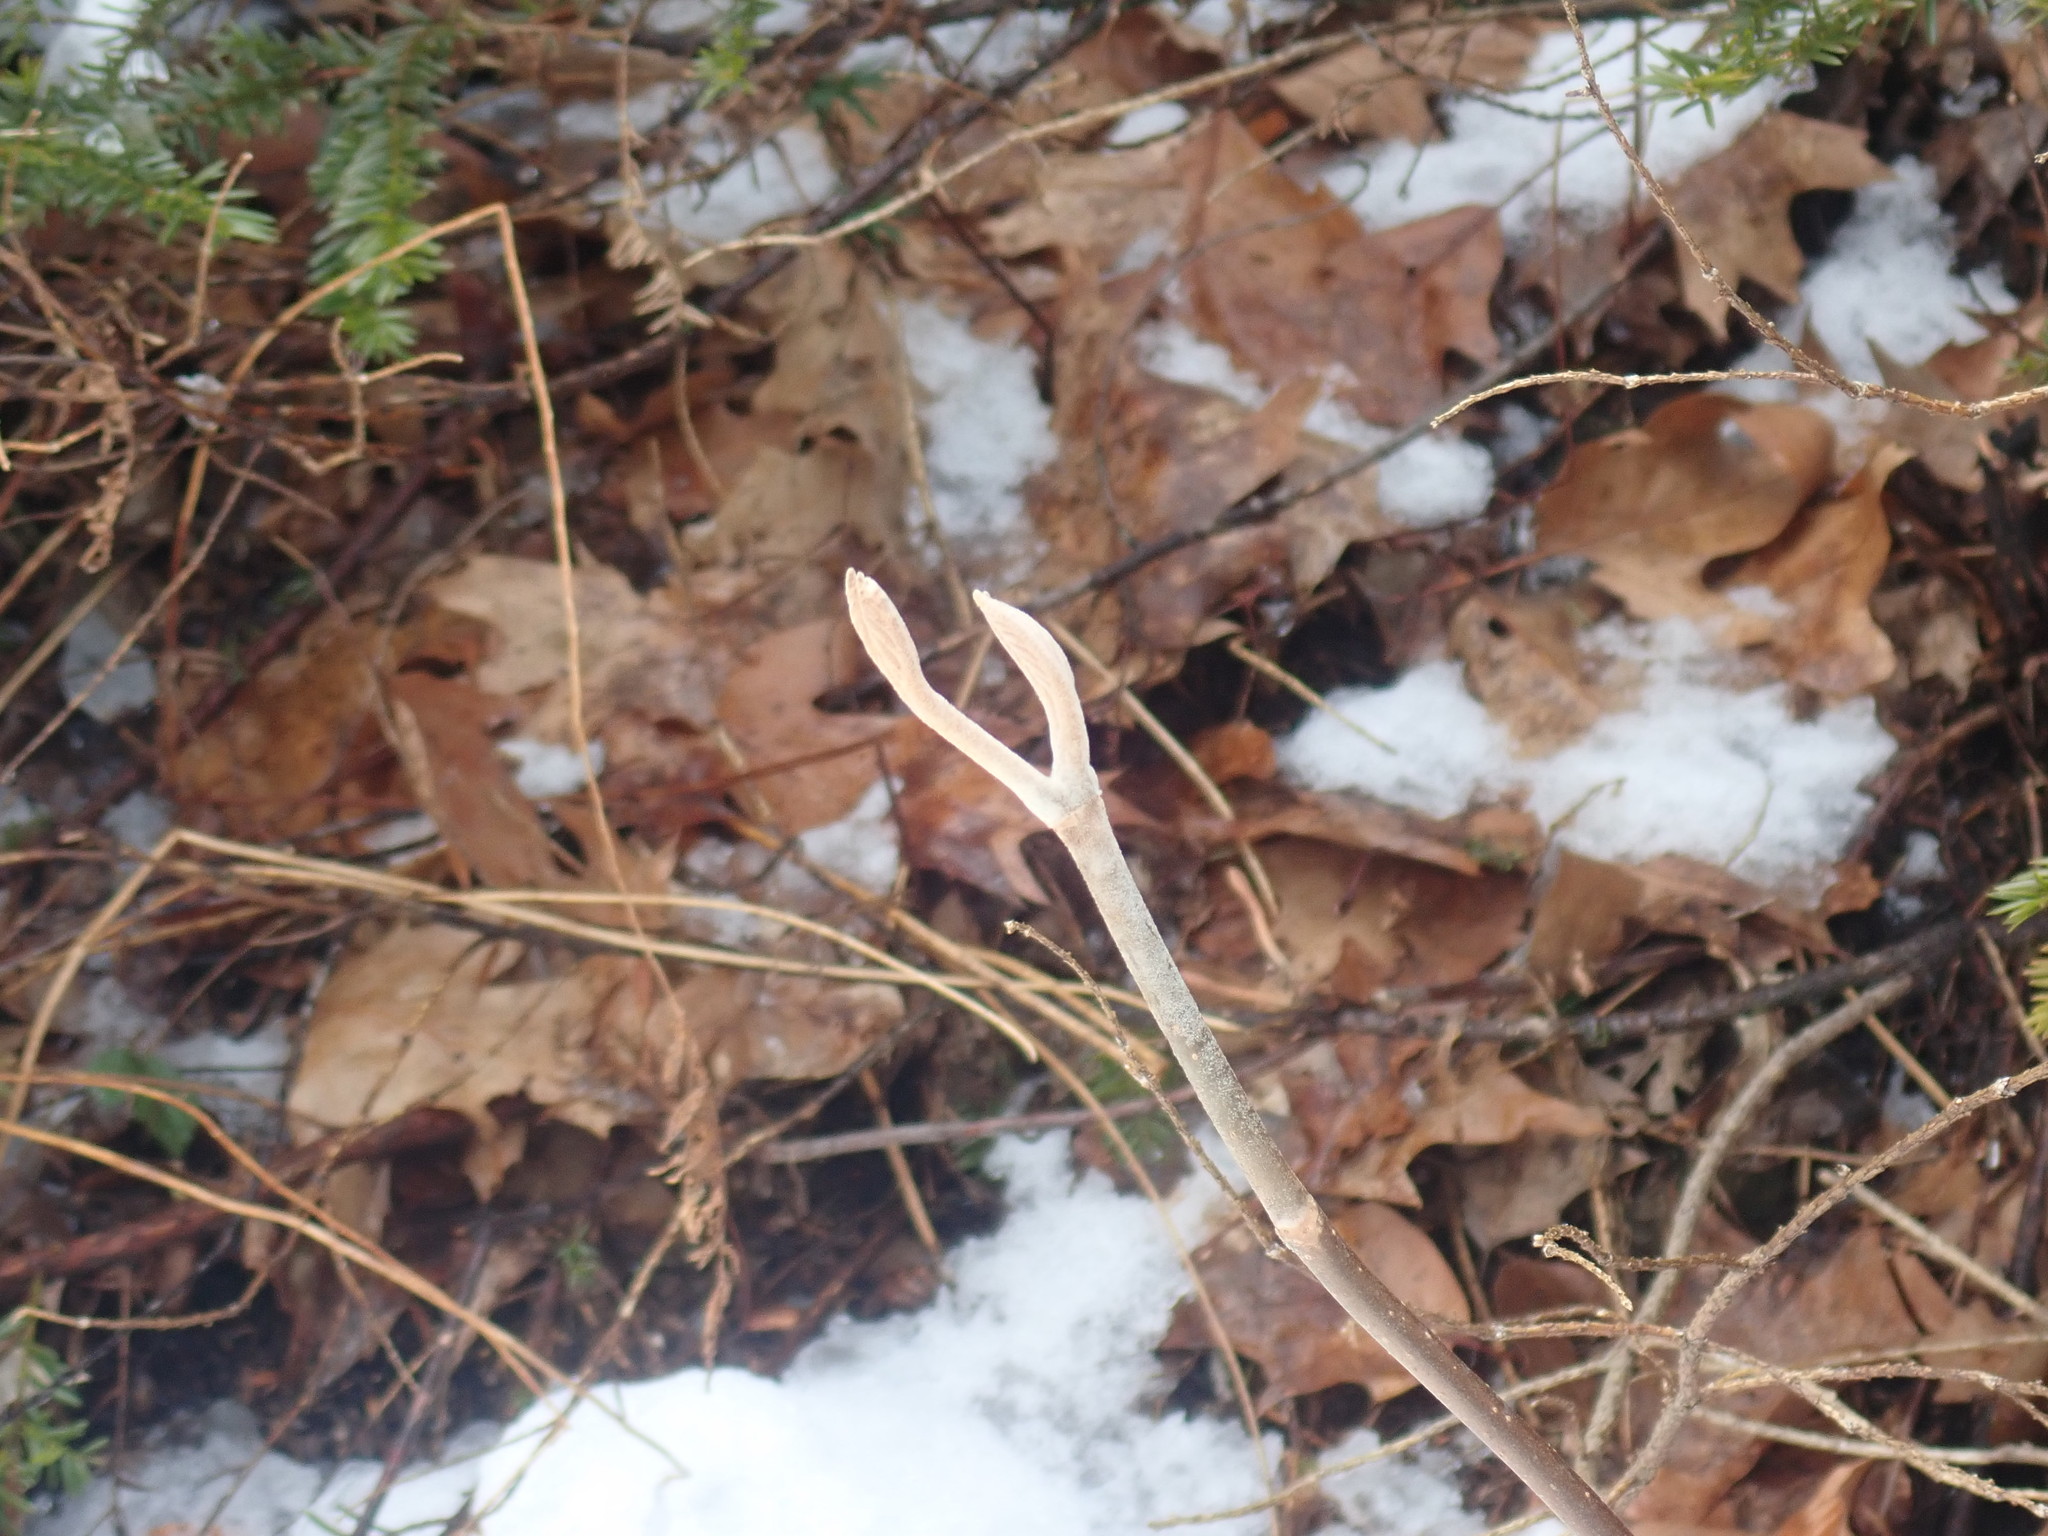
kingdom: Plantae
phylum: Tracheophyta
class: Magnoliopsida
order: Dipsacales
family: Viburnaceae
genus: Viburnum
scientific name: Viburnum lantanoides
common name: Hobblebush
